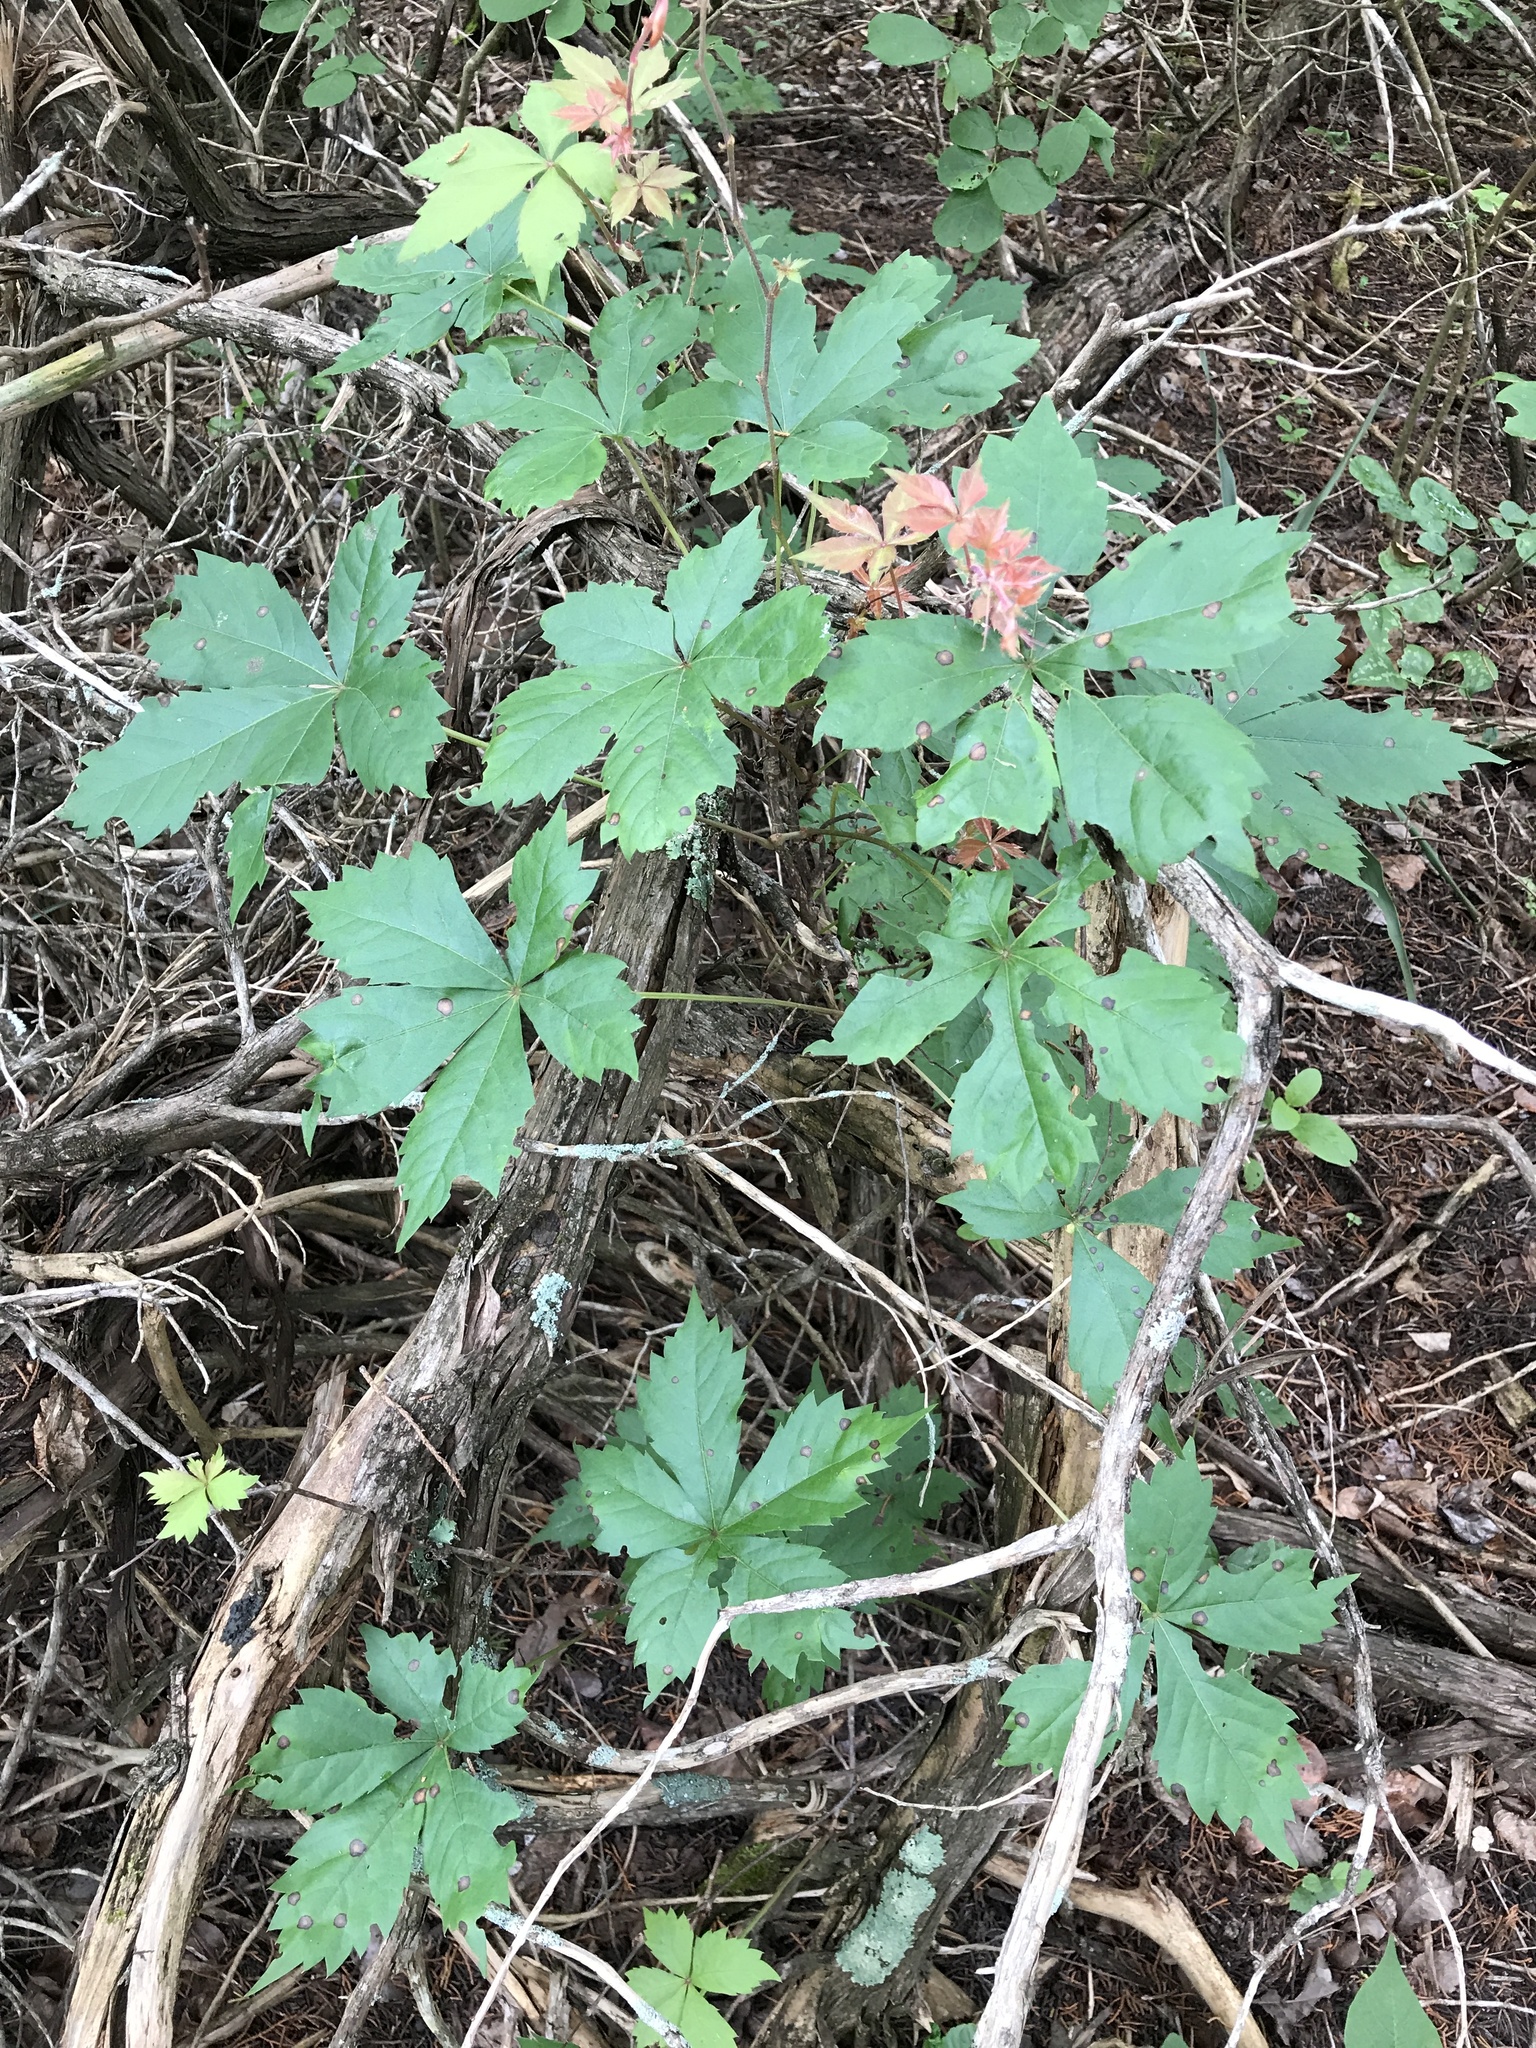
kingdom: Plantae
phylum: Tracheophyta
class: Magnoliopsida
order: Vitales
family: Vitaceae
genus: Parthenocissus
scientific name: Parthenocissus quinquefolia
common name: Virginia-creeper
